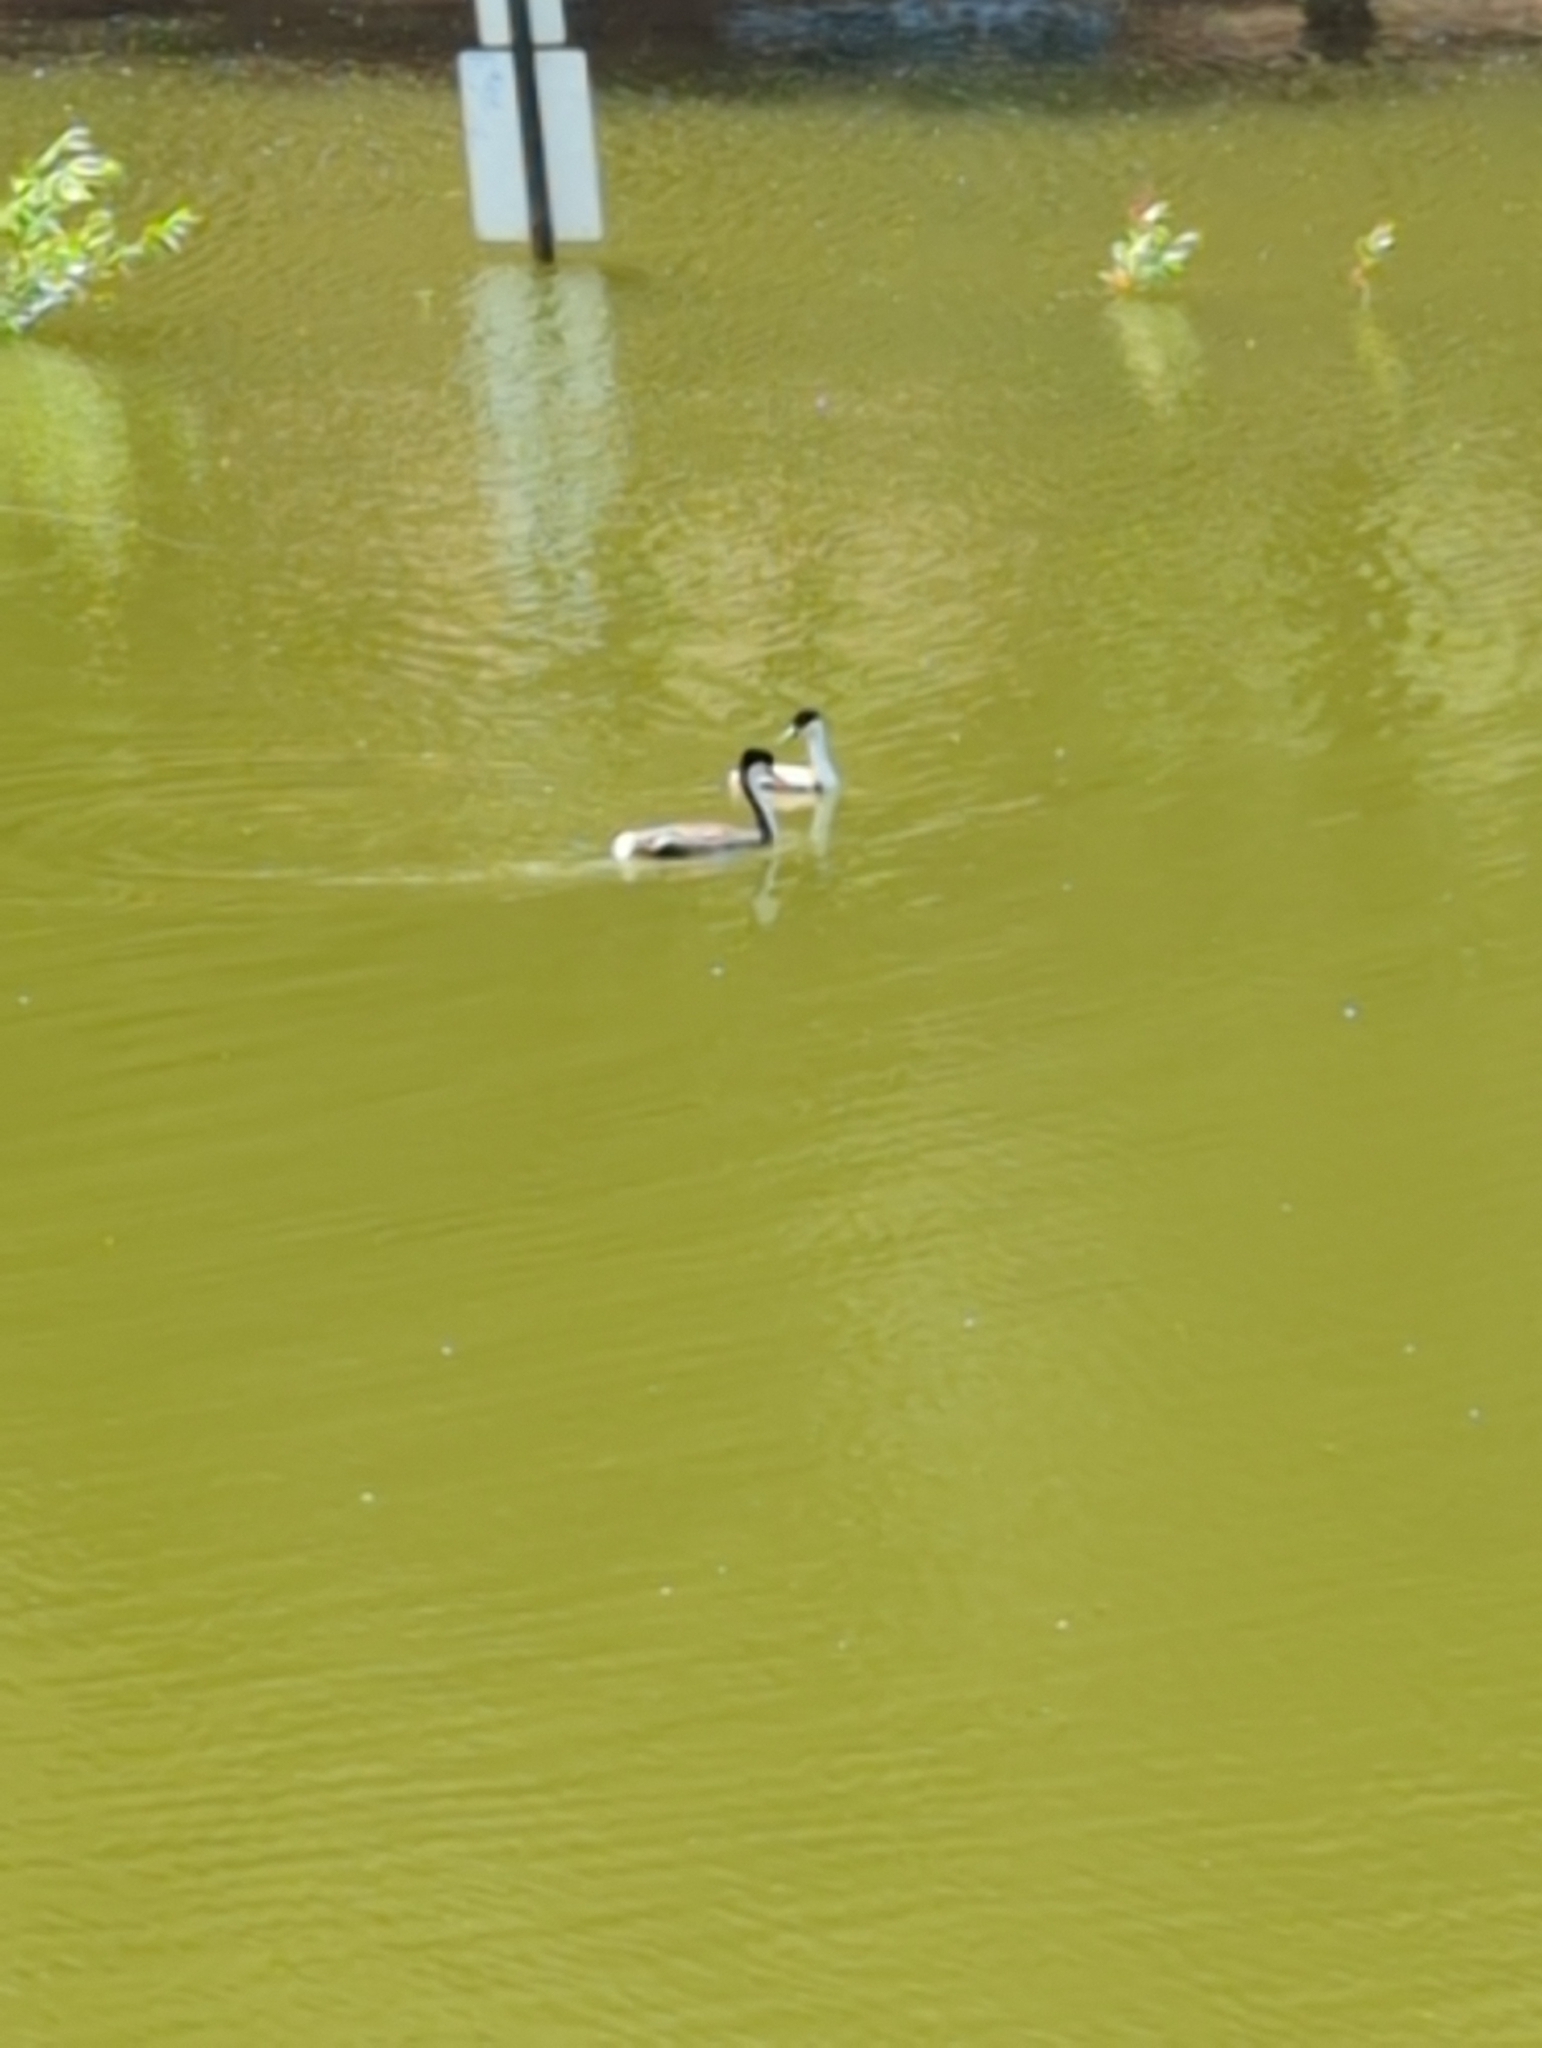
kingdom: Animalia
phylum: Chordata
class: Aves
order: Podicipediformes
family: Podicipedidae
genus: Aechmophorus
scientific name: Aechmophorus occidentalis
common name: Western grebe
